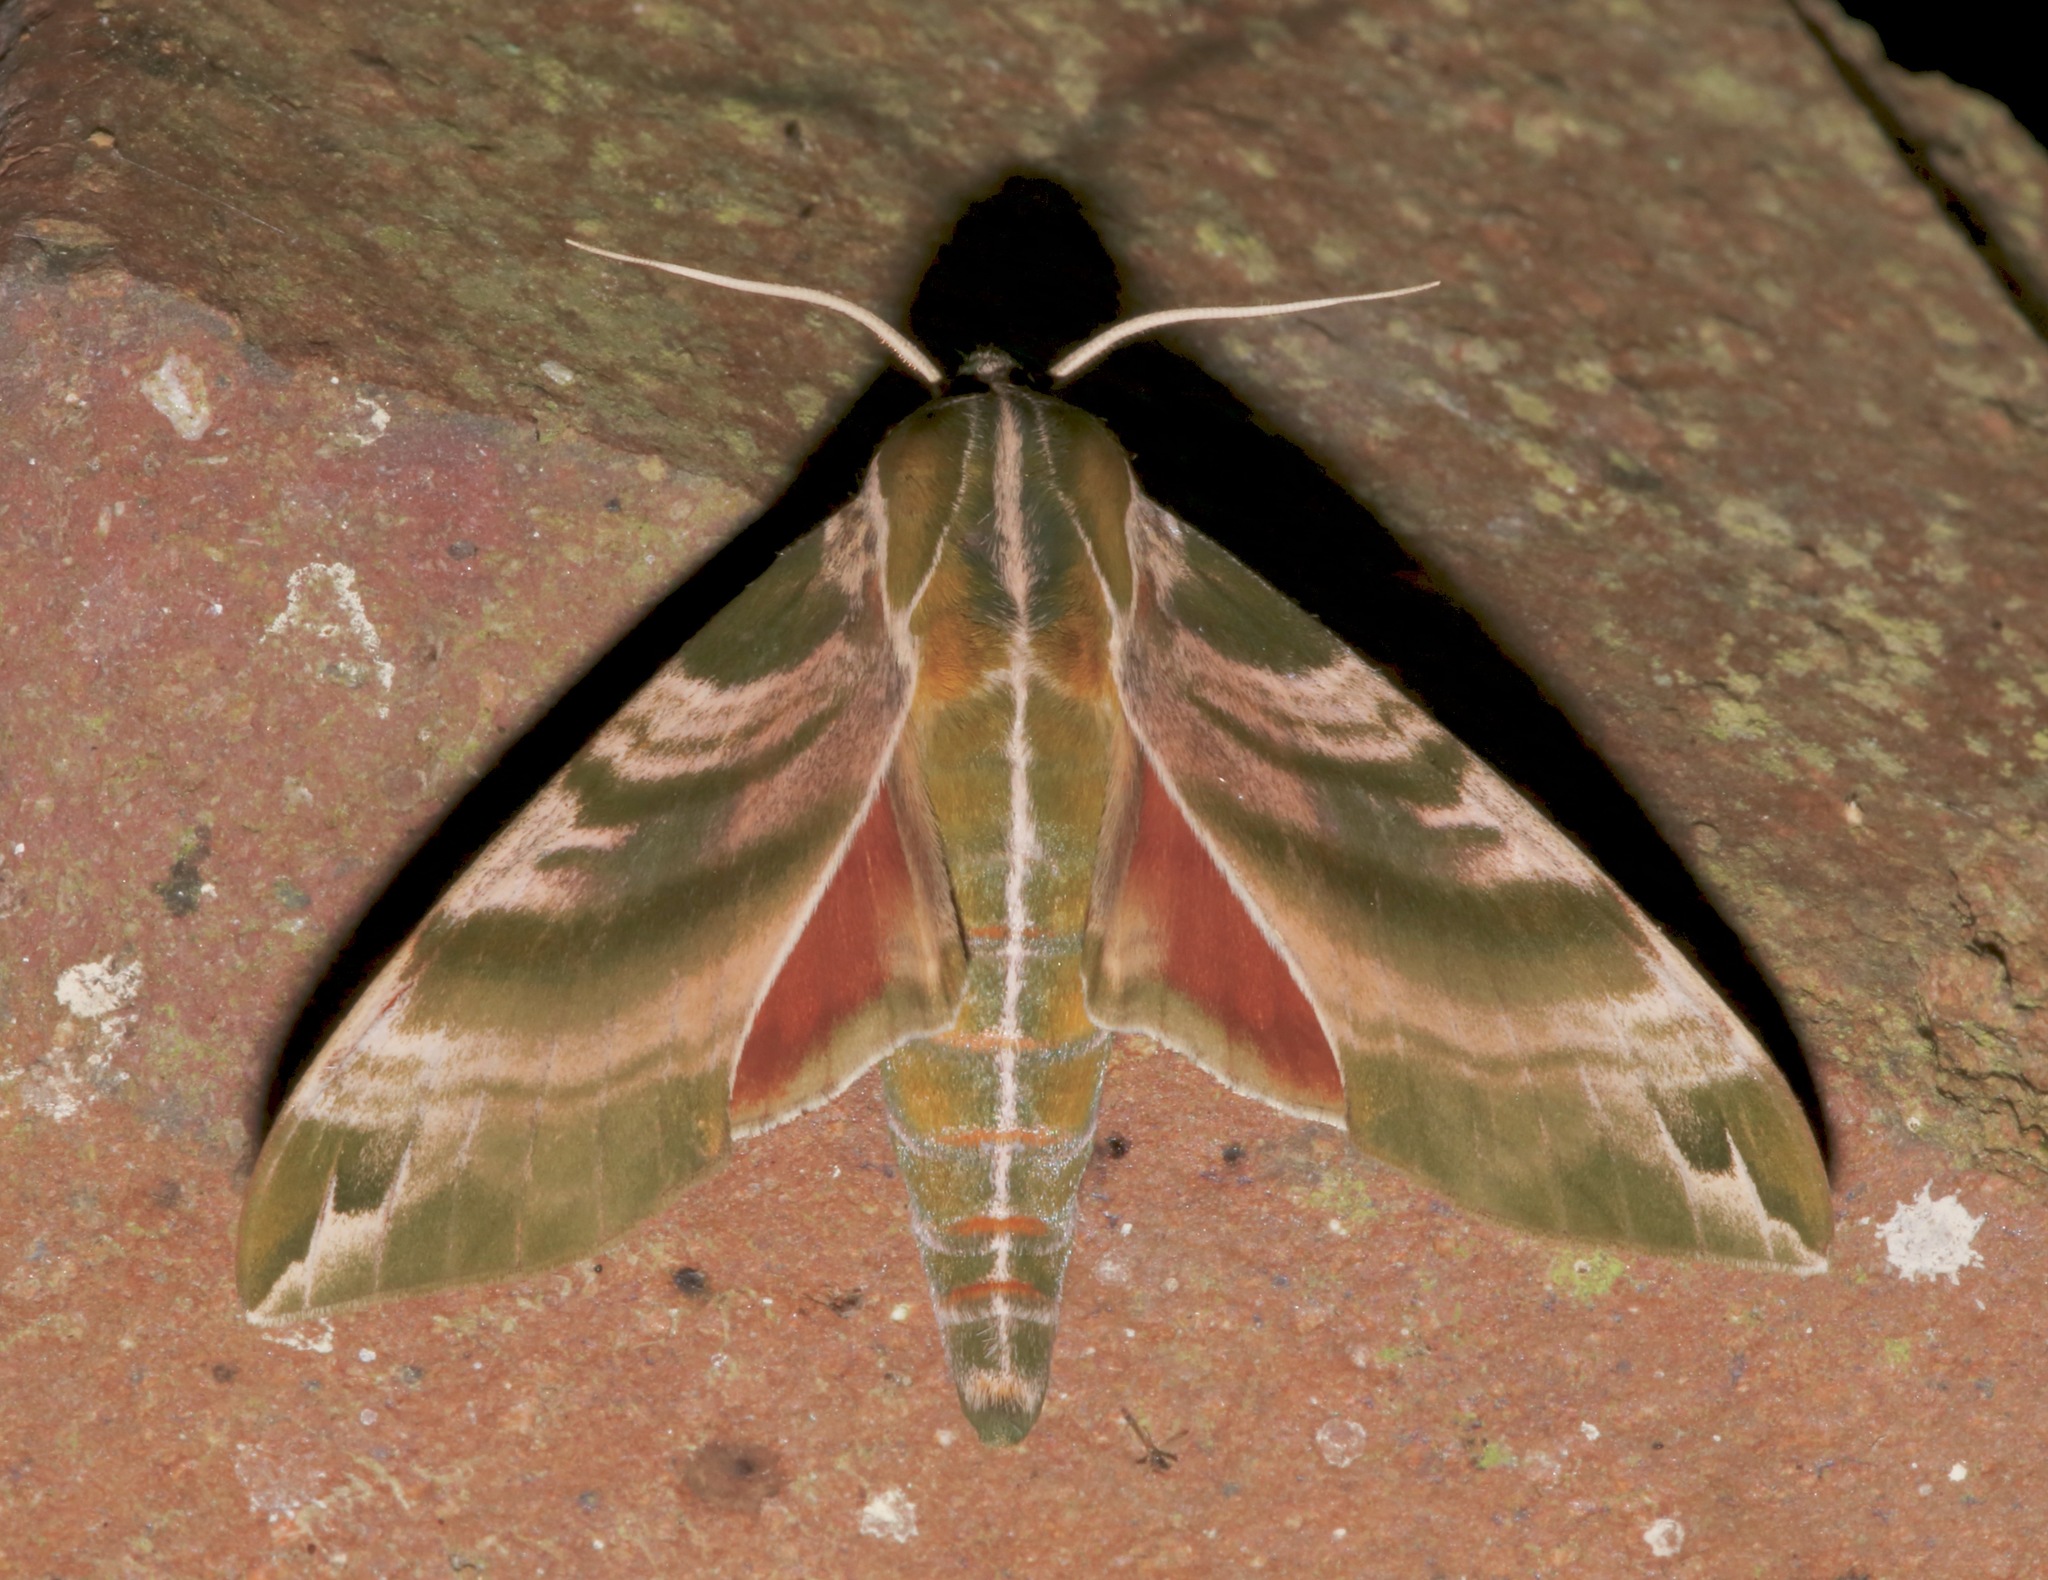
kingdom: Animalia
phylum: Arthropoda
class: Insecta
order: Lepidoptera
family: Sphingidae
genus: Darapsa
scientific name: Darapsa versicolor
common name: Hydrangea sphinx
